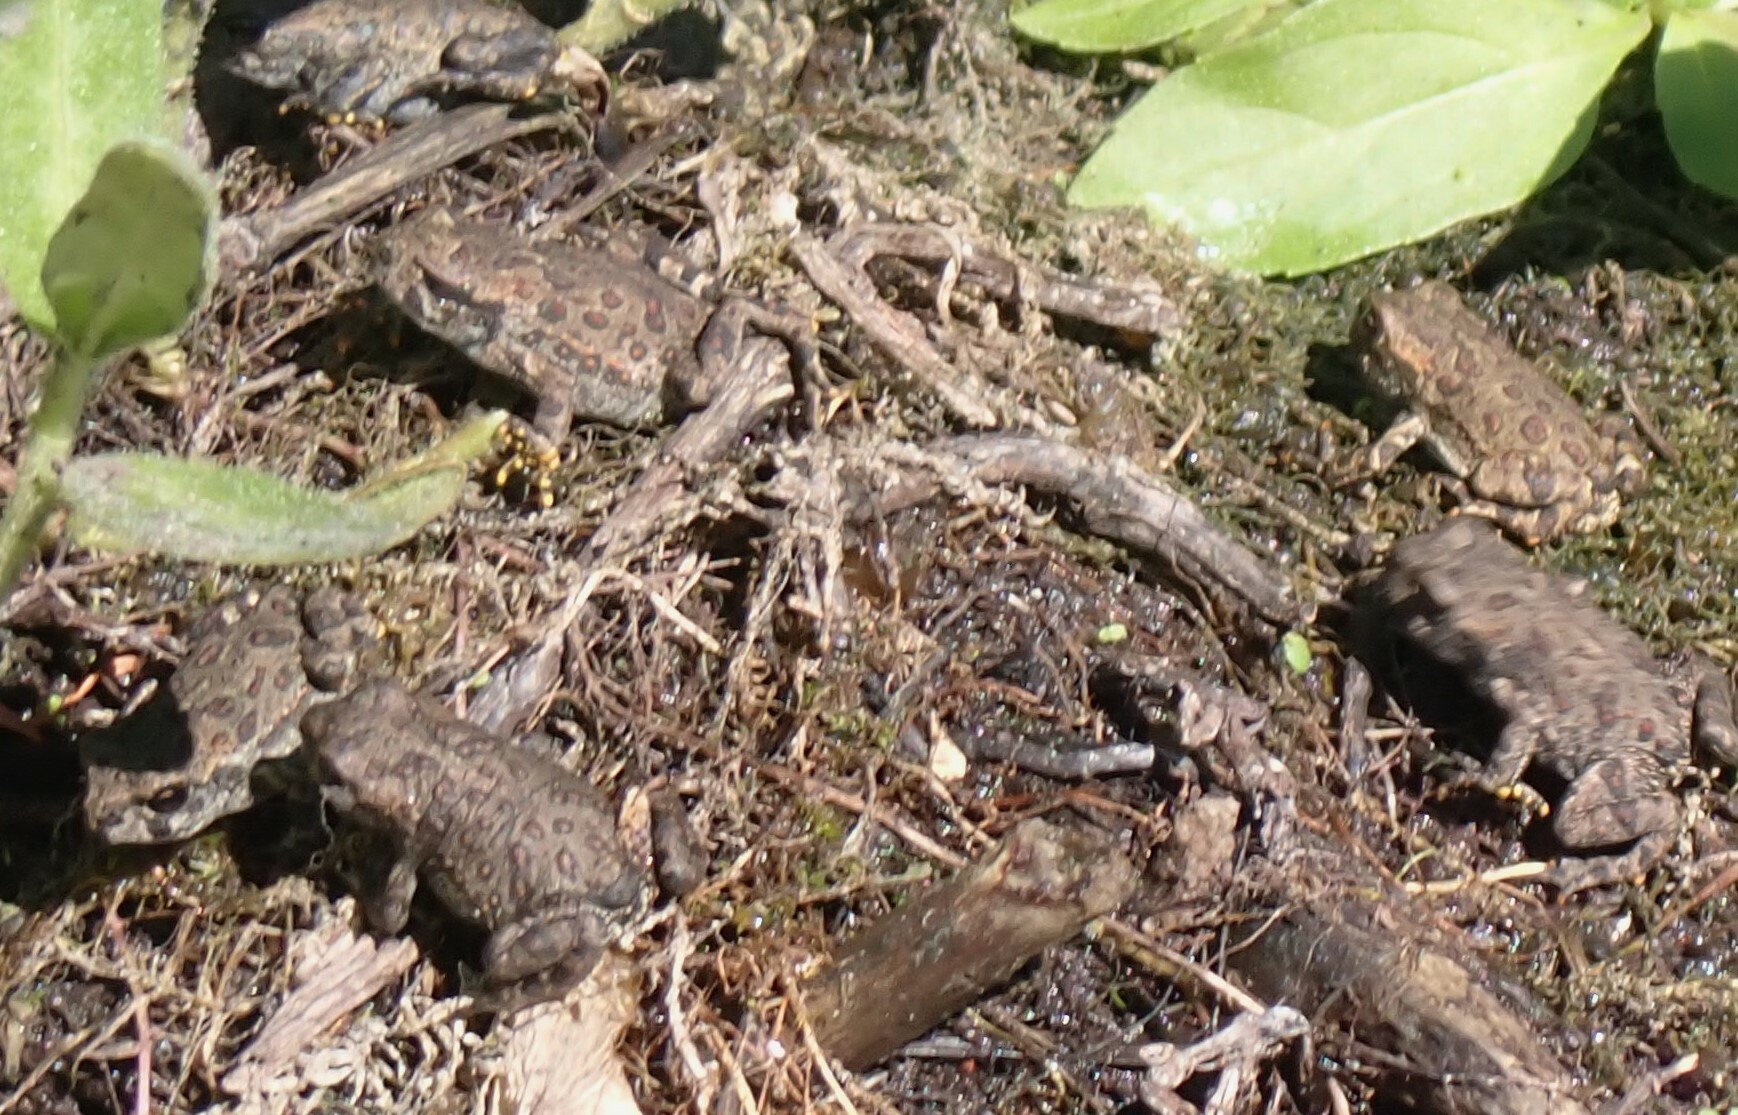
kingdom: Animalia
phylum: Chordata
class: Amphibia
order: Anura
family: Bufonidae
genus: Anaxyrus
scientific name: Anaxyrus boreas
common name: Western toad
